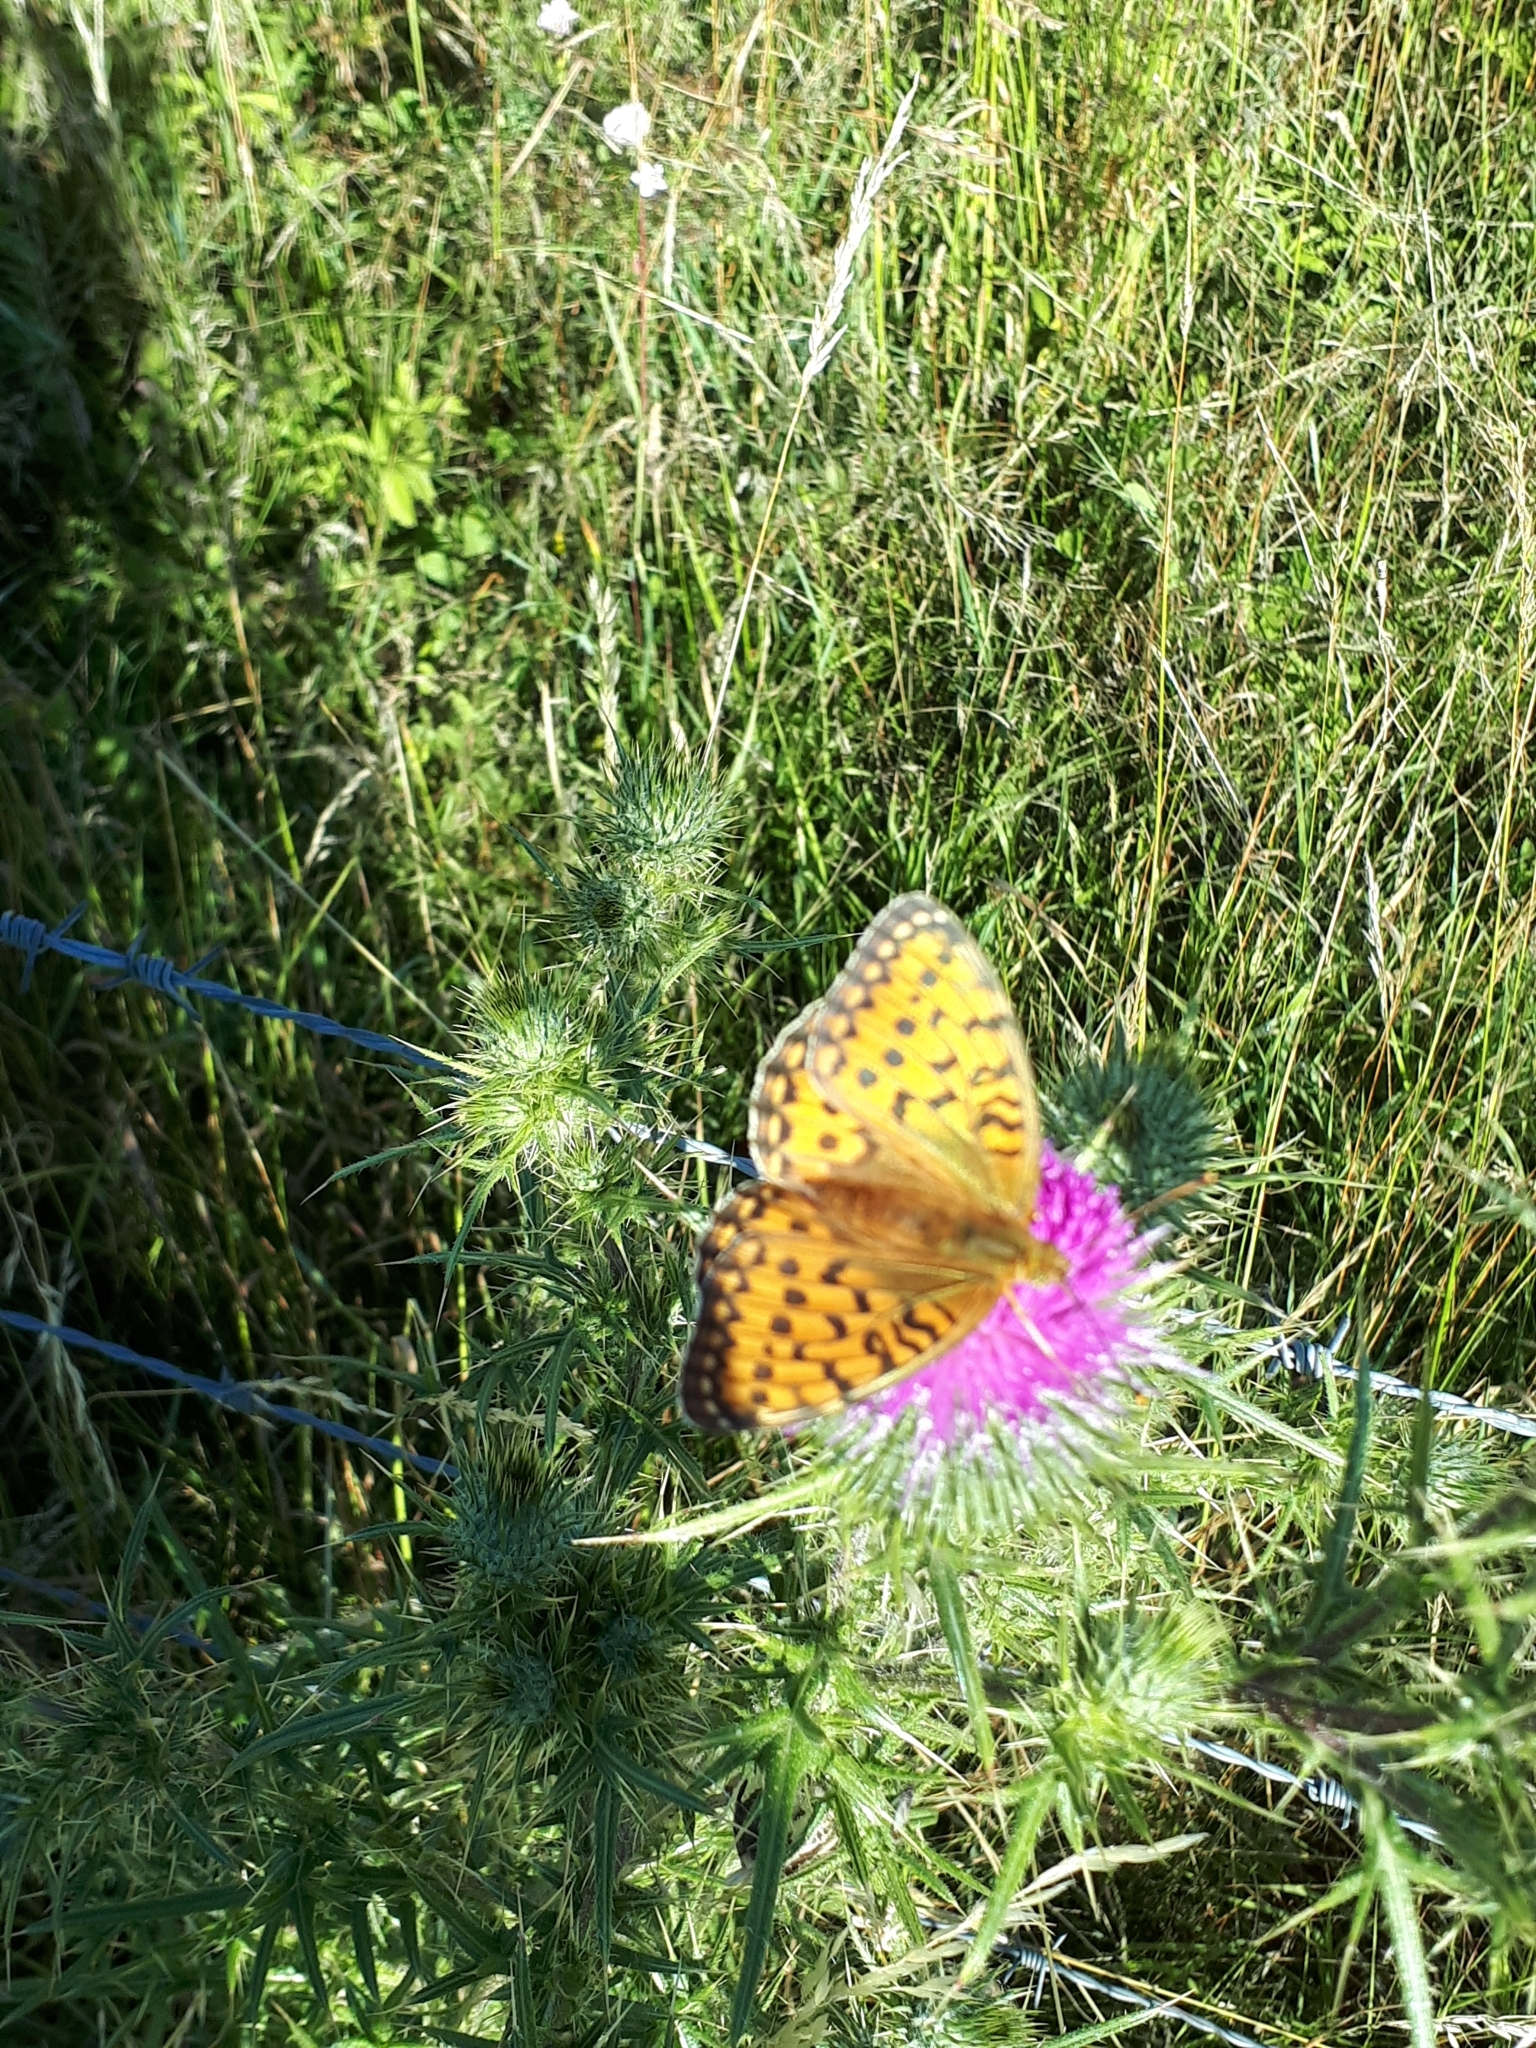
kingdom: Animalia
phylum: Arthropoda
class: Insecta
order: Lepidoptera
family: Nymphalidae
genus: Speyeria
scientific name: Speyeria aglaja
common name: Dark green fritillary
